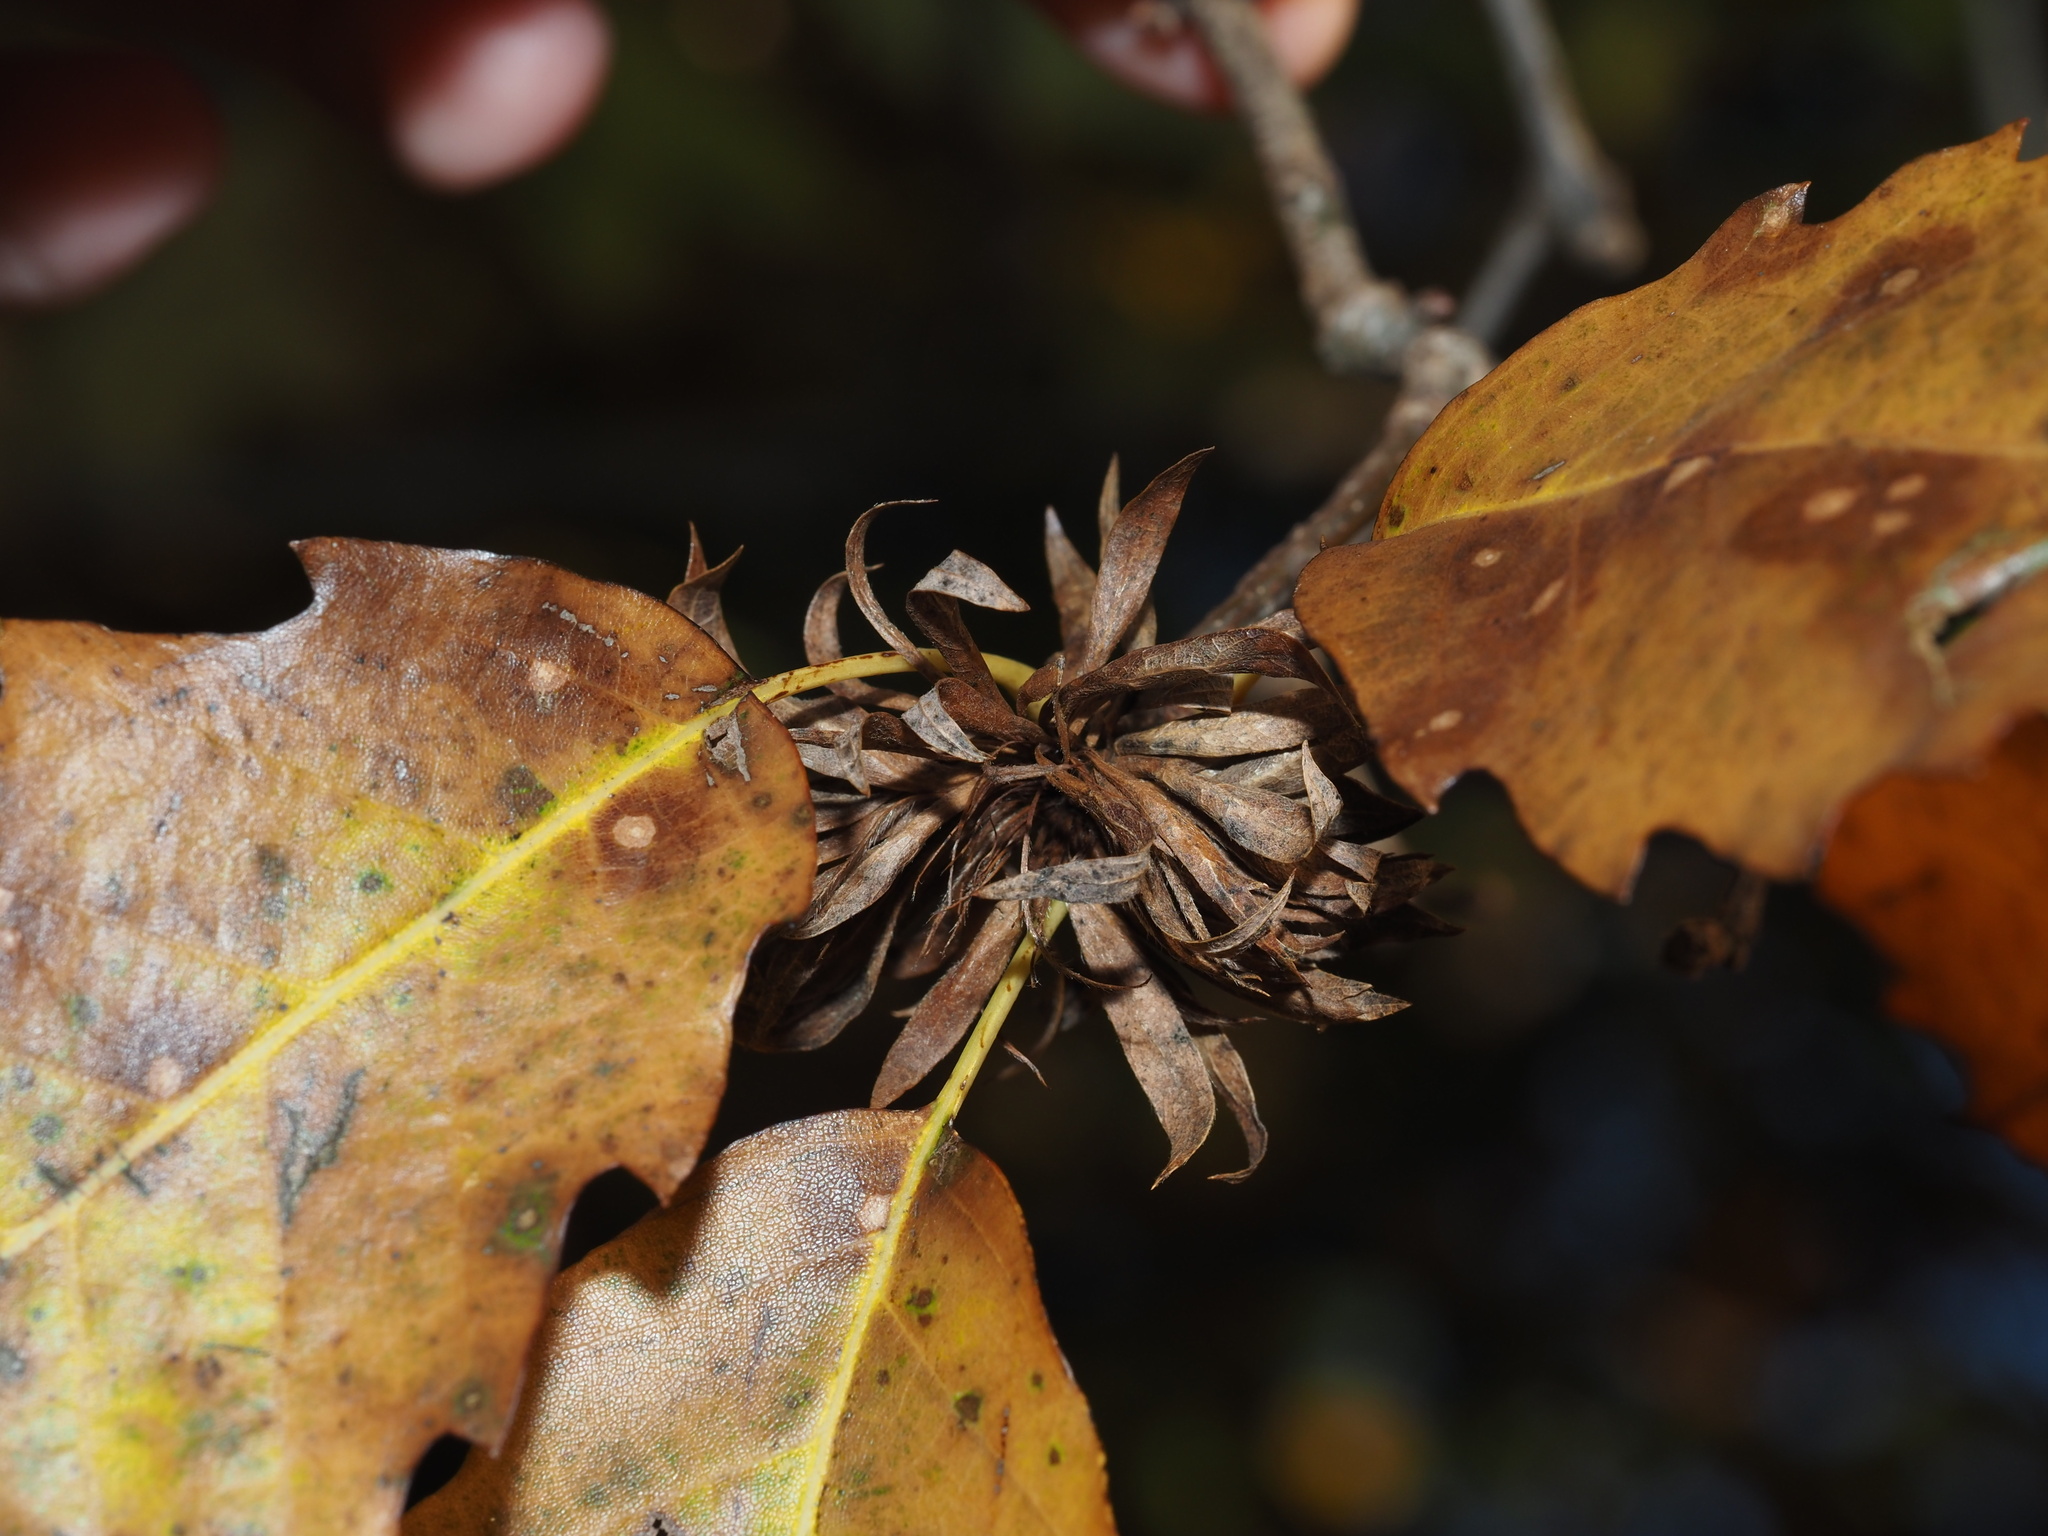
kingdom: Animalia
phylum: Arthropoda
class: Insecta
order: Hymenoptera
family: Cynipidae
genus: Andricus
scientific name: Andricus
